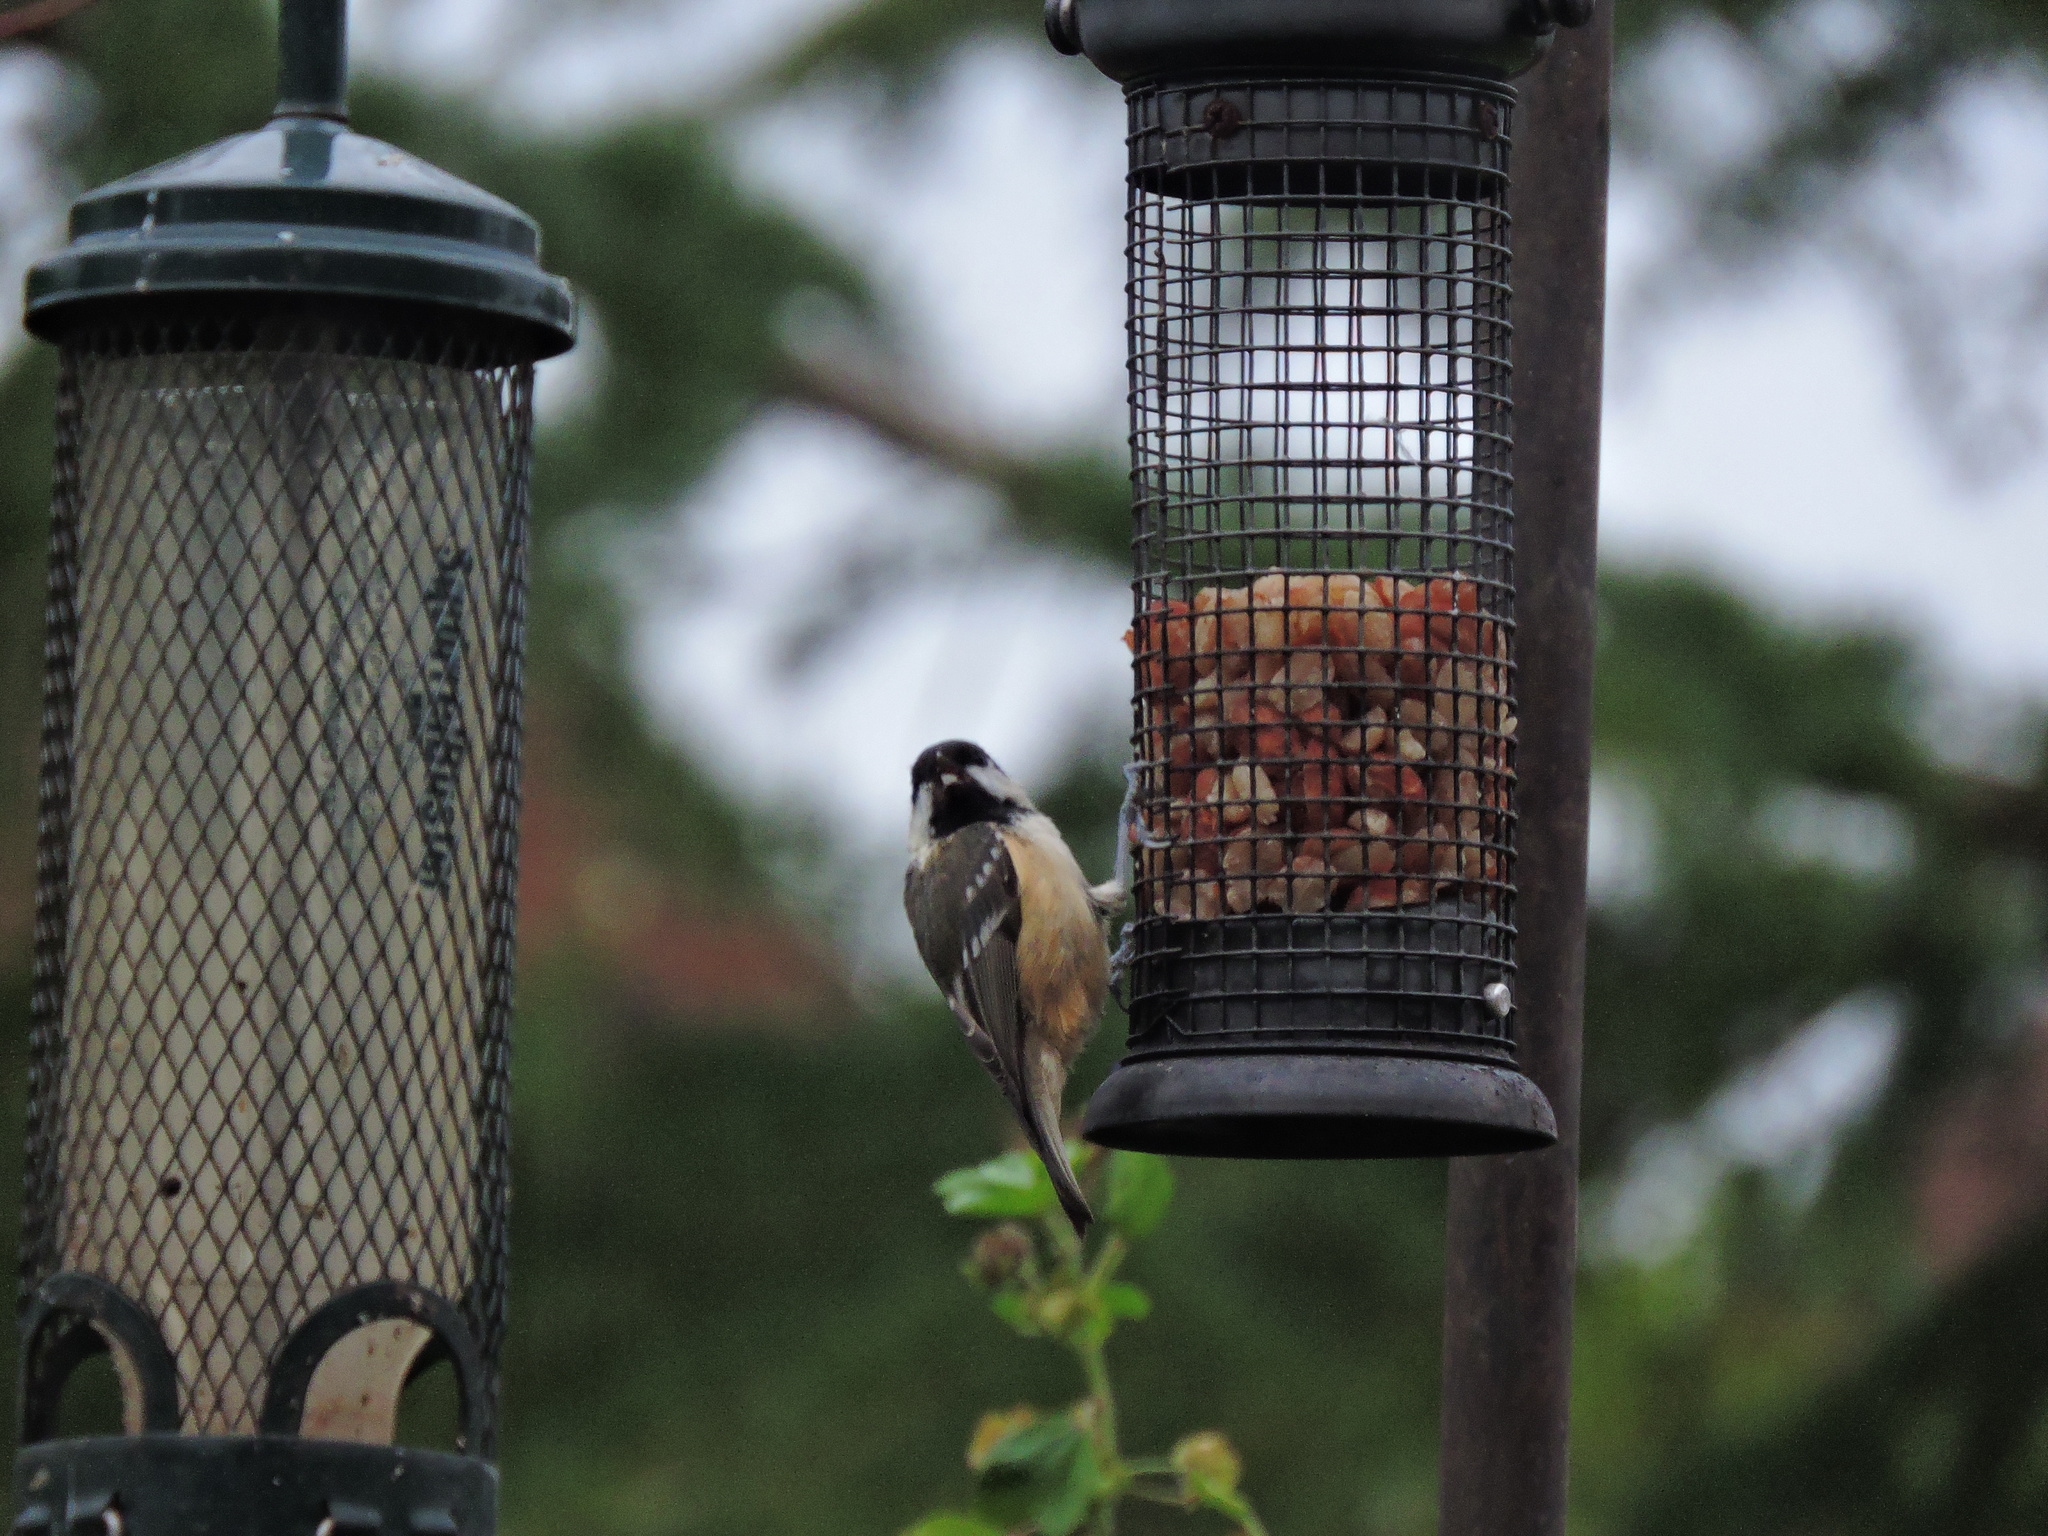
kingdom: Animalia
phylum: Chordata
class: Aves
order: Passeriformes
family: Paridae
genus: Periparus
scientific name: Periparus ater
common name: Coal tit
